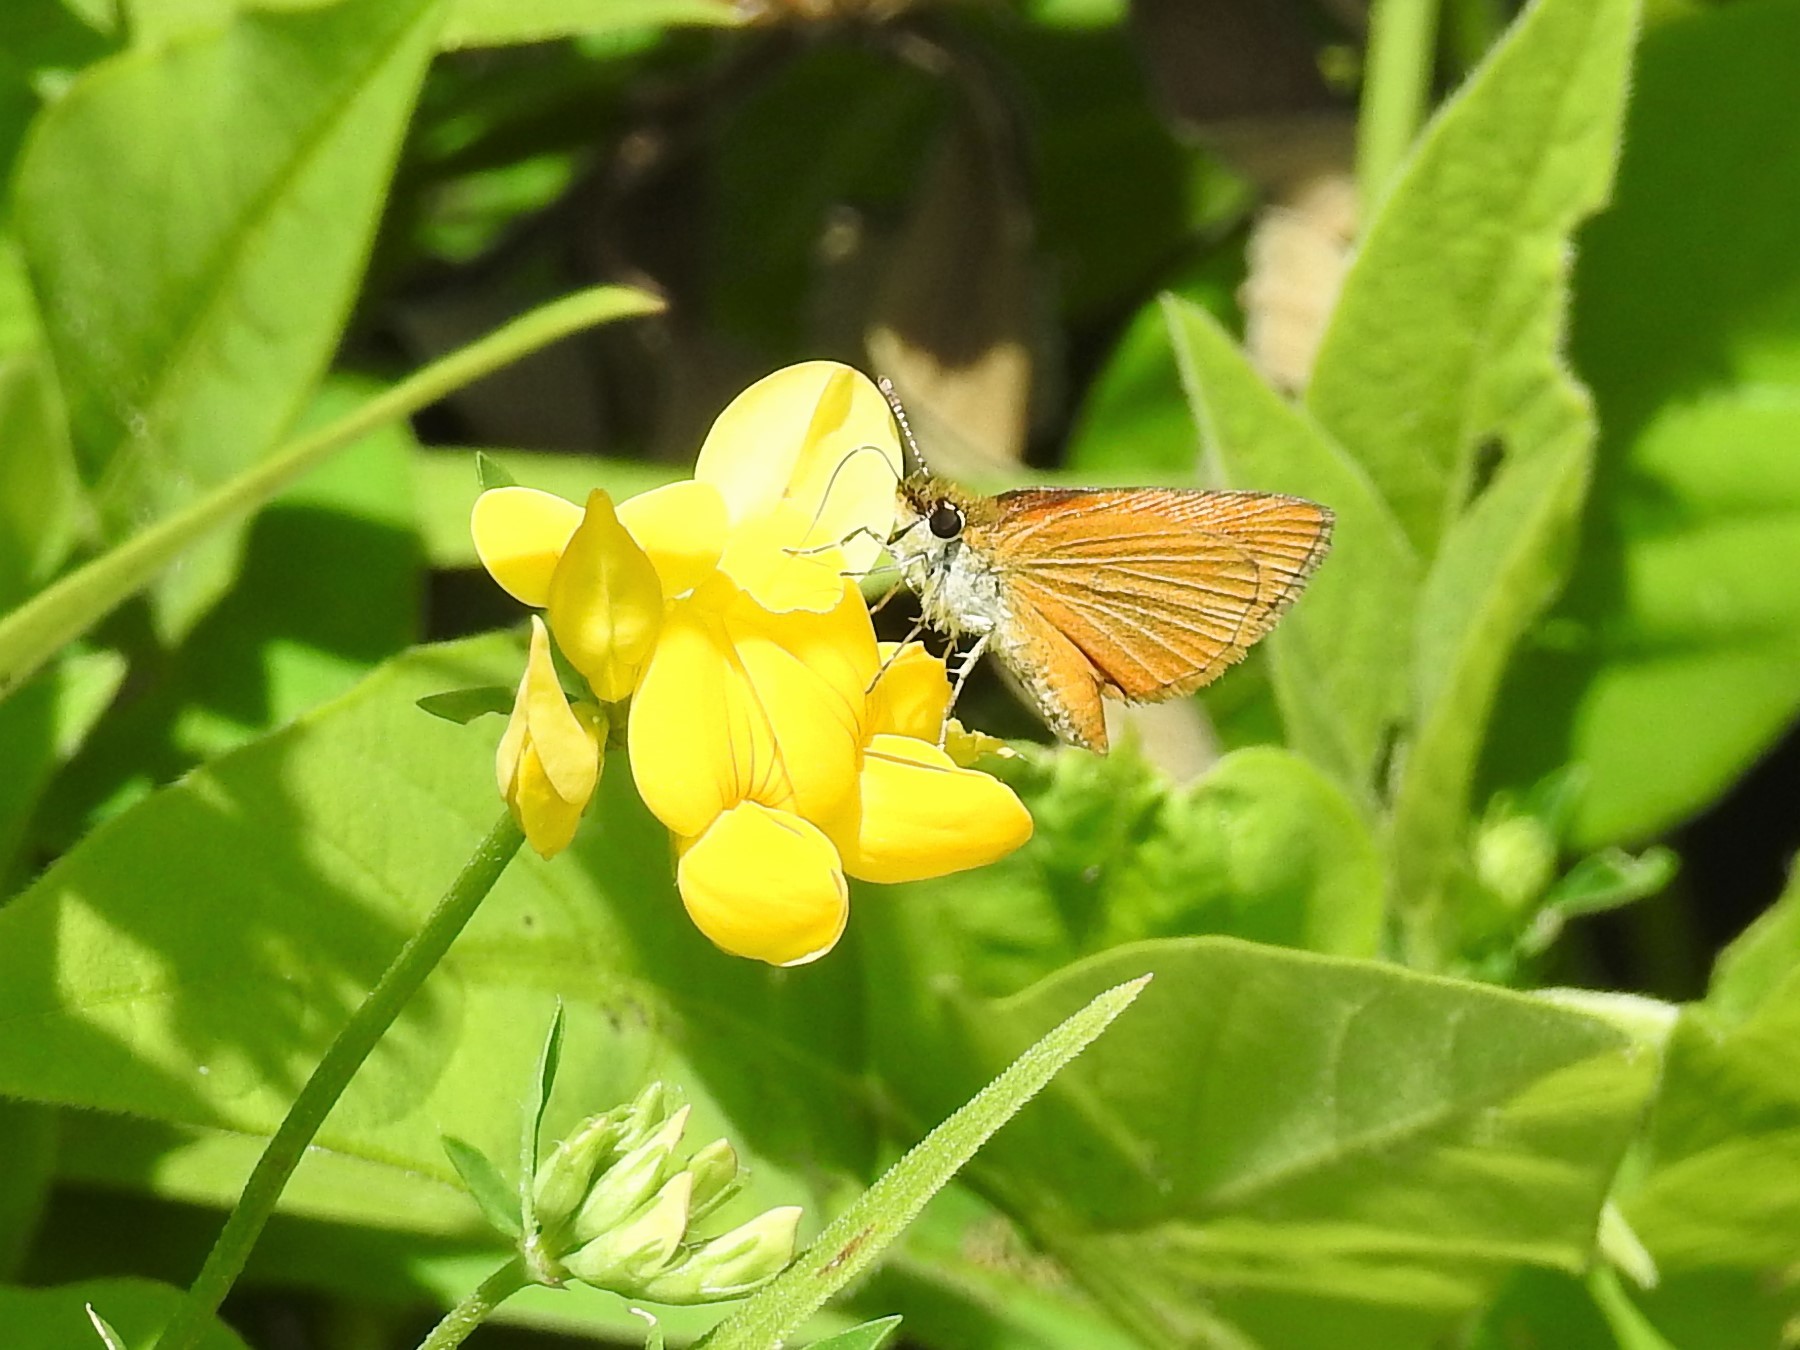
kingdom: Animalia
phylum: Arthropoda
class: Insecta
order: Lepidoptera
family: Hesperiidae
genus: Ancyloxypha
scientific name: Ancyloxypha numitor
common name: Least skipper
